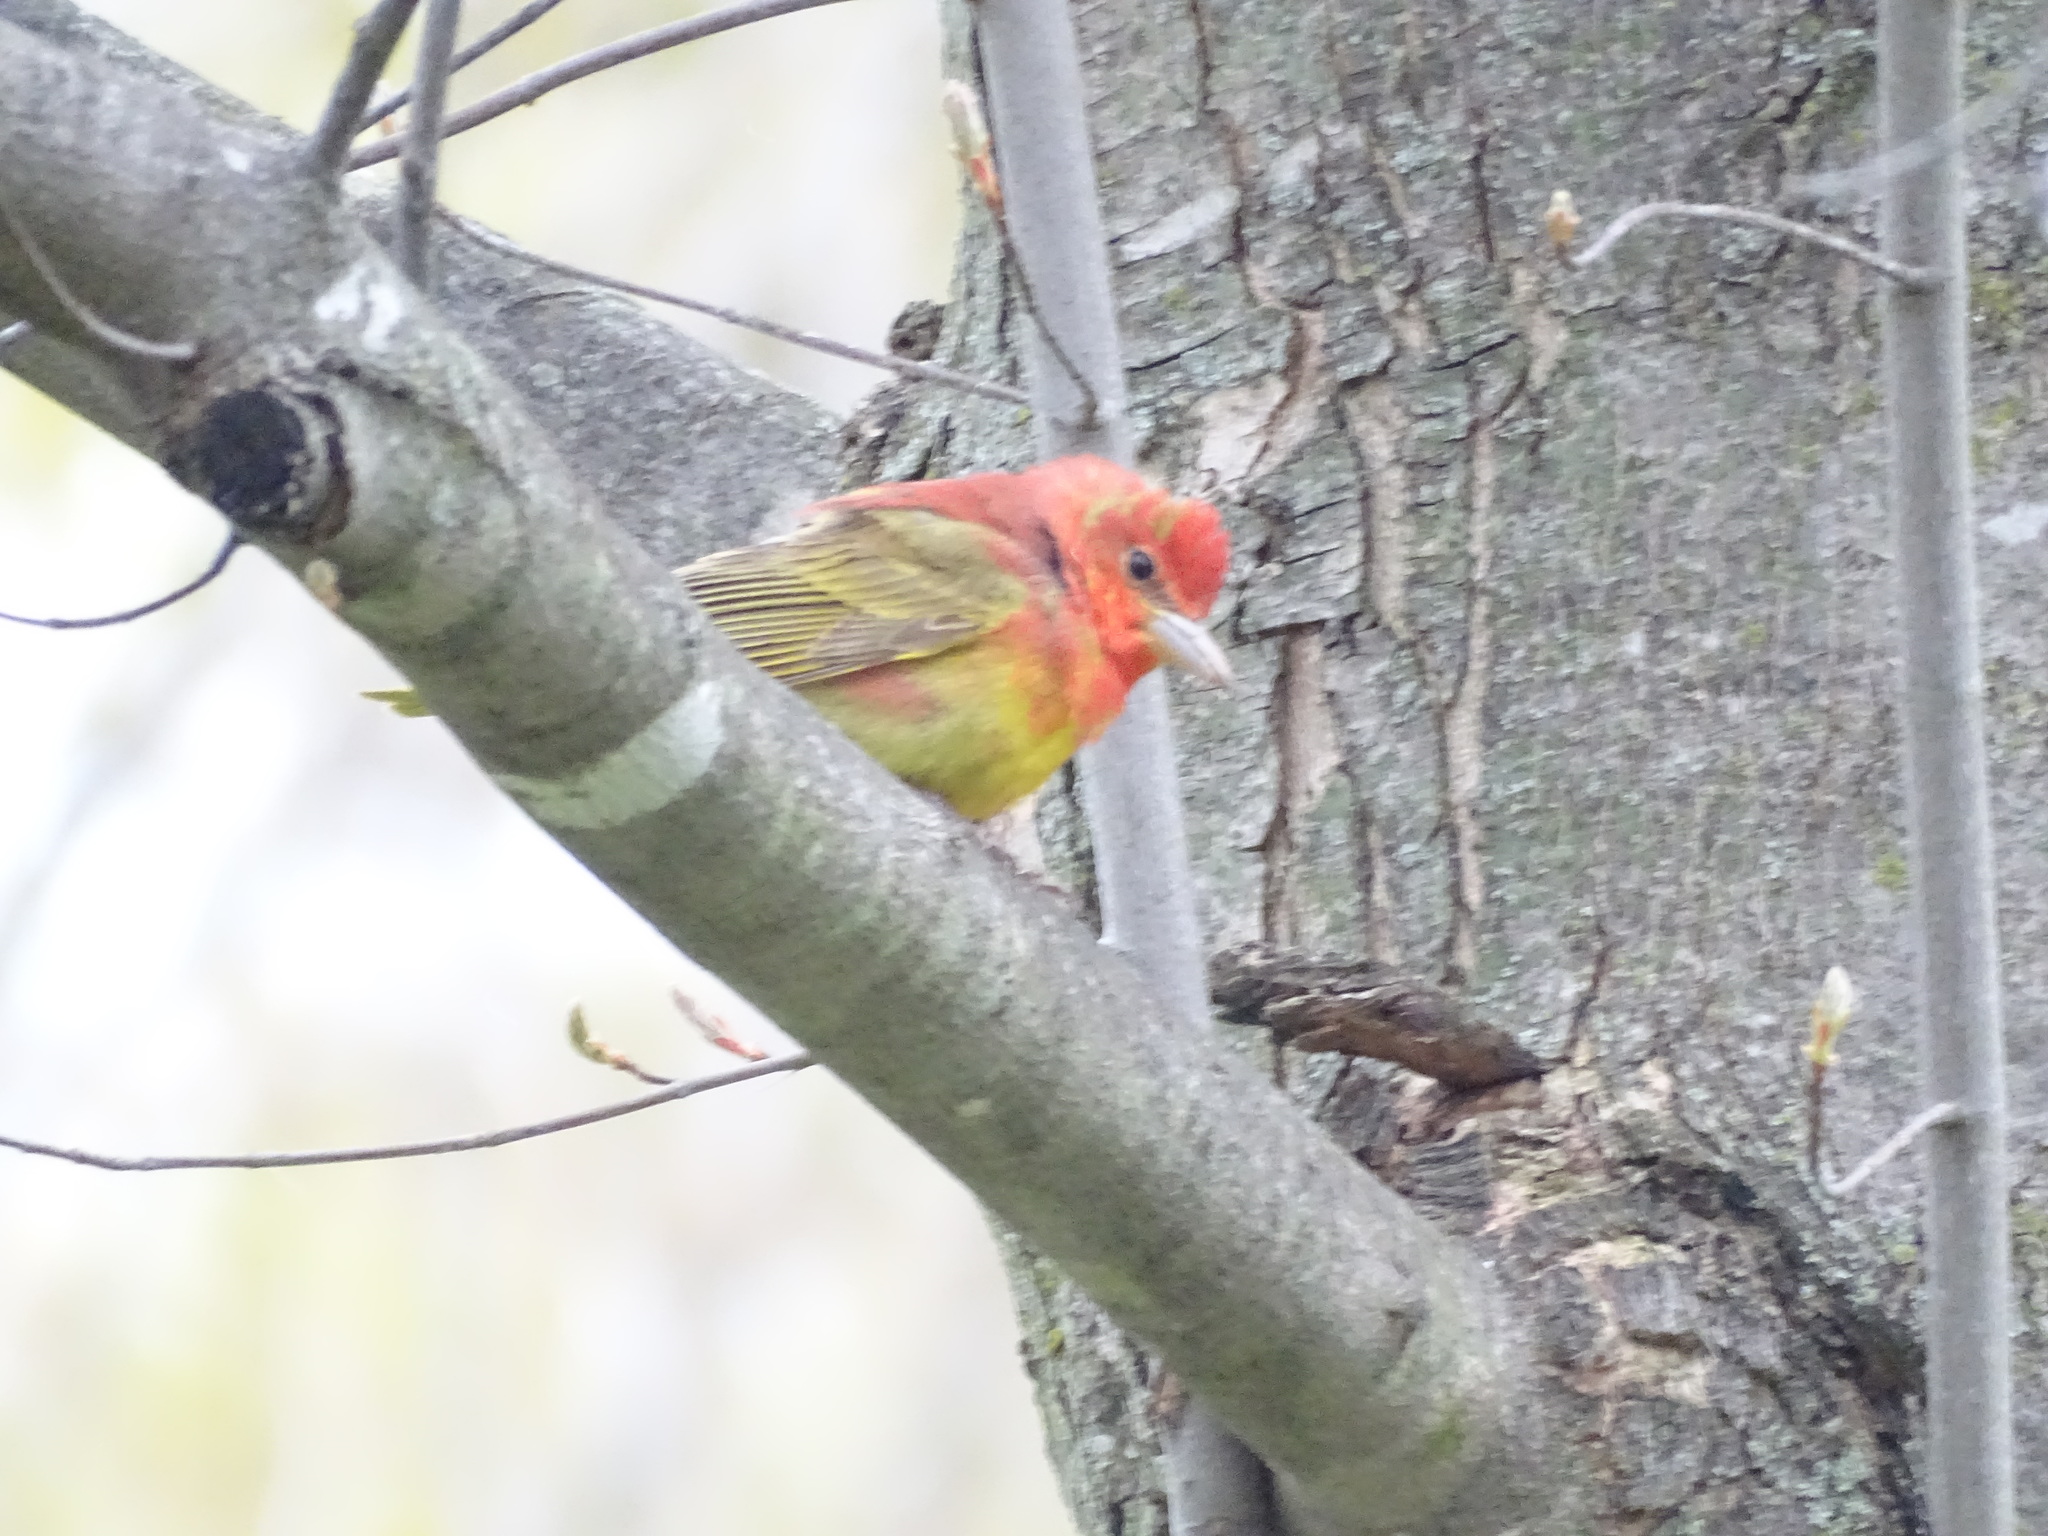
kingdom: Animalia
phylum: Chordata
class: Aves
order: Passeriformes
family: Cardinalidae
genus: Piranga
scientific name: Piranga rubra
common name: Summer tanager
